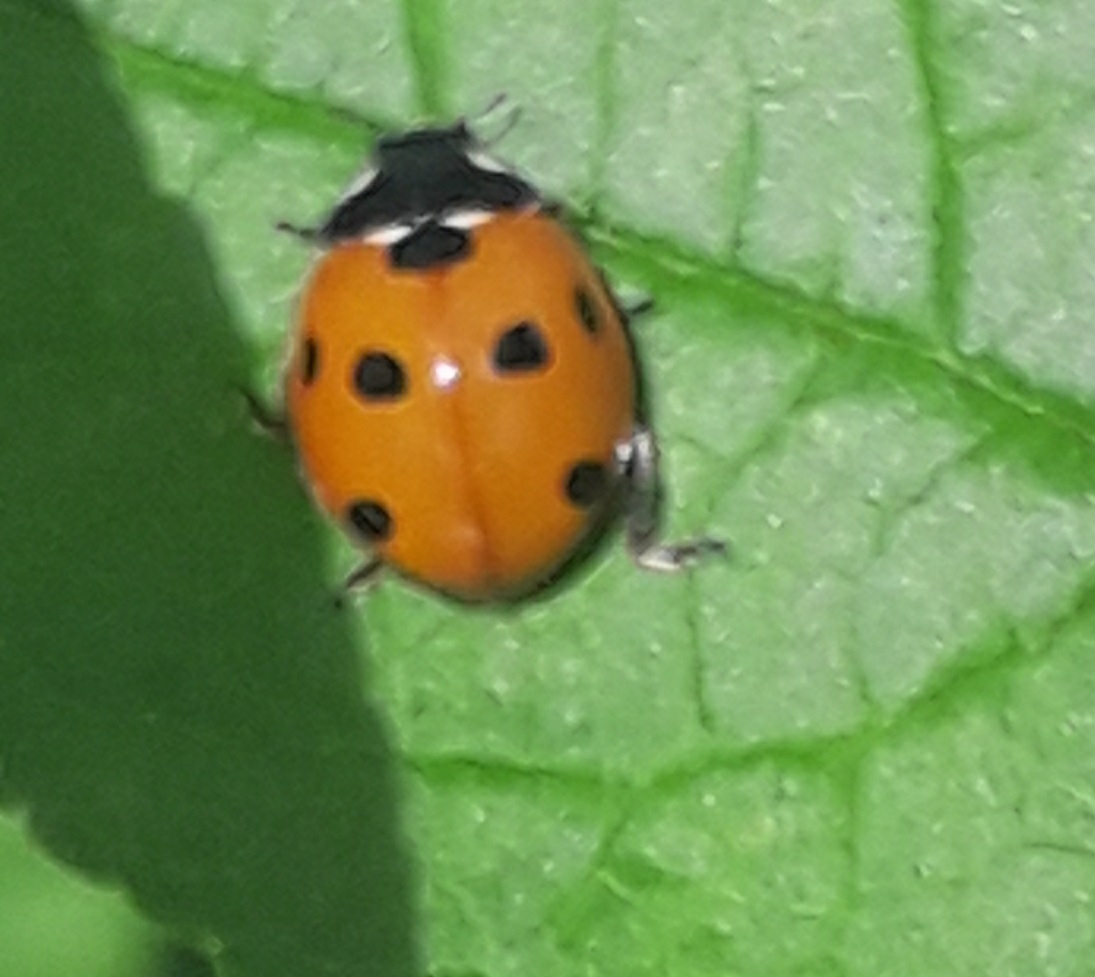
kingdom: Animalia
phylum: Arthropoda
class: Insecta
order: Coleoptera
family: Coccinellidae
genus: Coccinella
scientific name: Coccinella septempunctata
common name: Sevenspotted lady beetle
